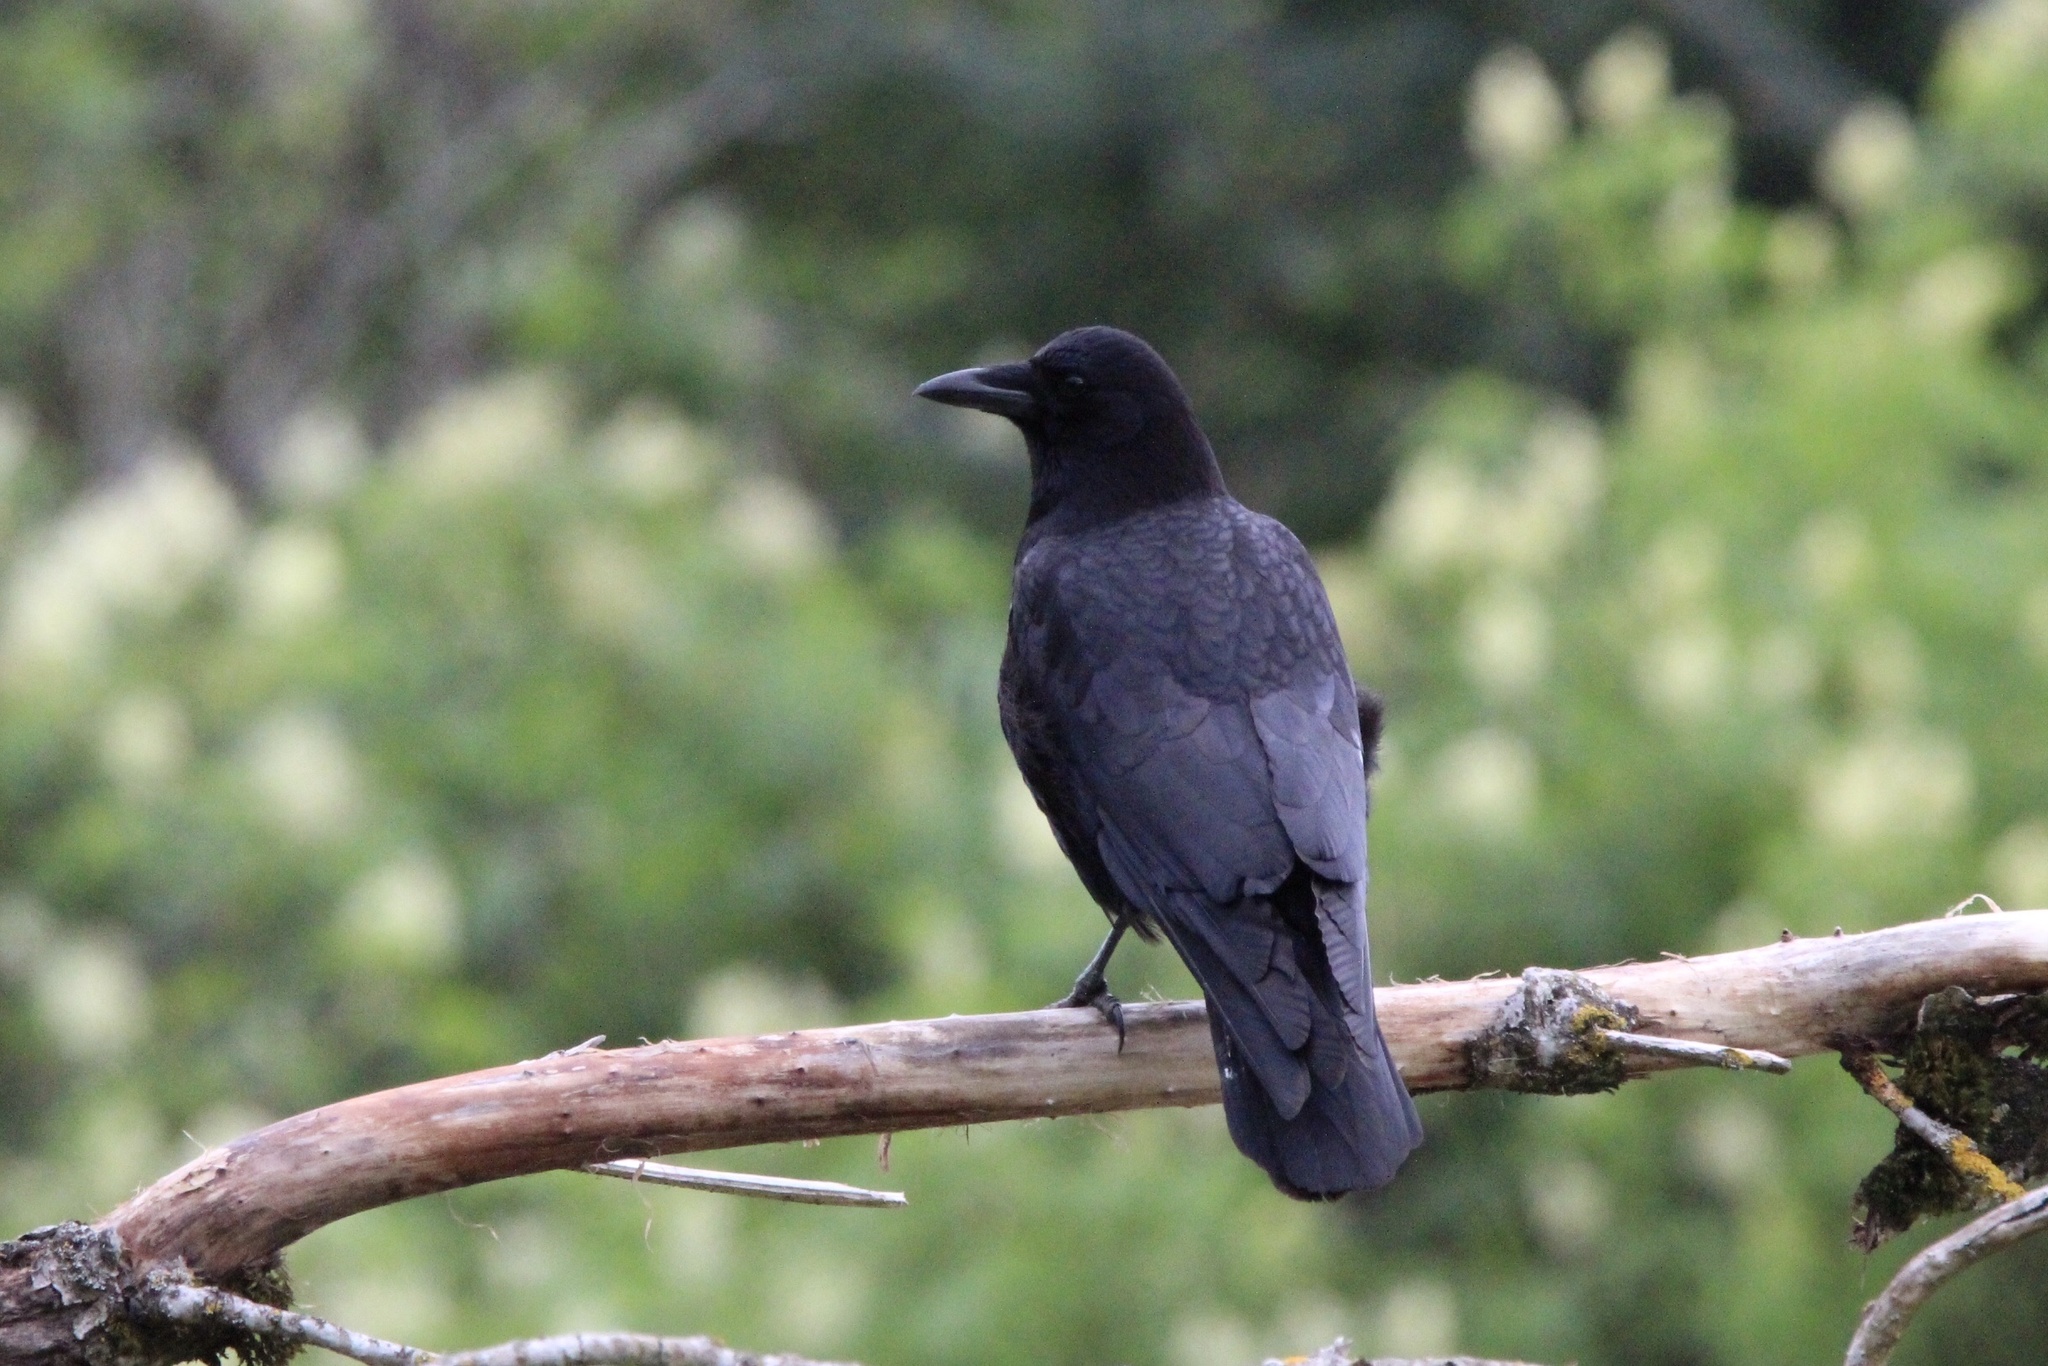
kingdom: Animalia
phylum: Chordata
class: Aves
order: Passeriformes
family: Corvidae
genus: Corvus
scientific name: Corvus brachyrhynchos
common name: American crow
